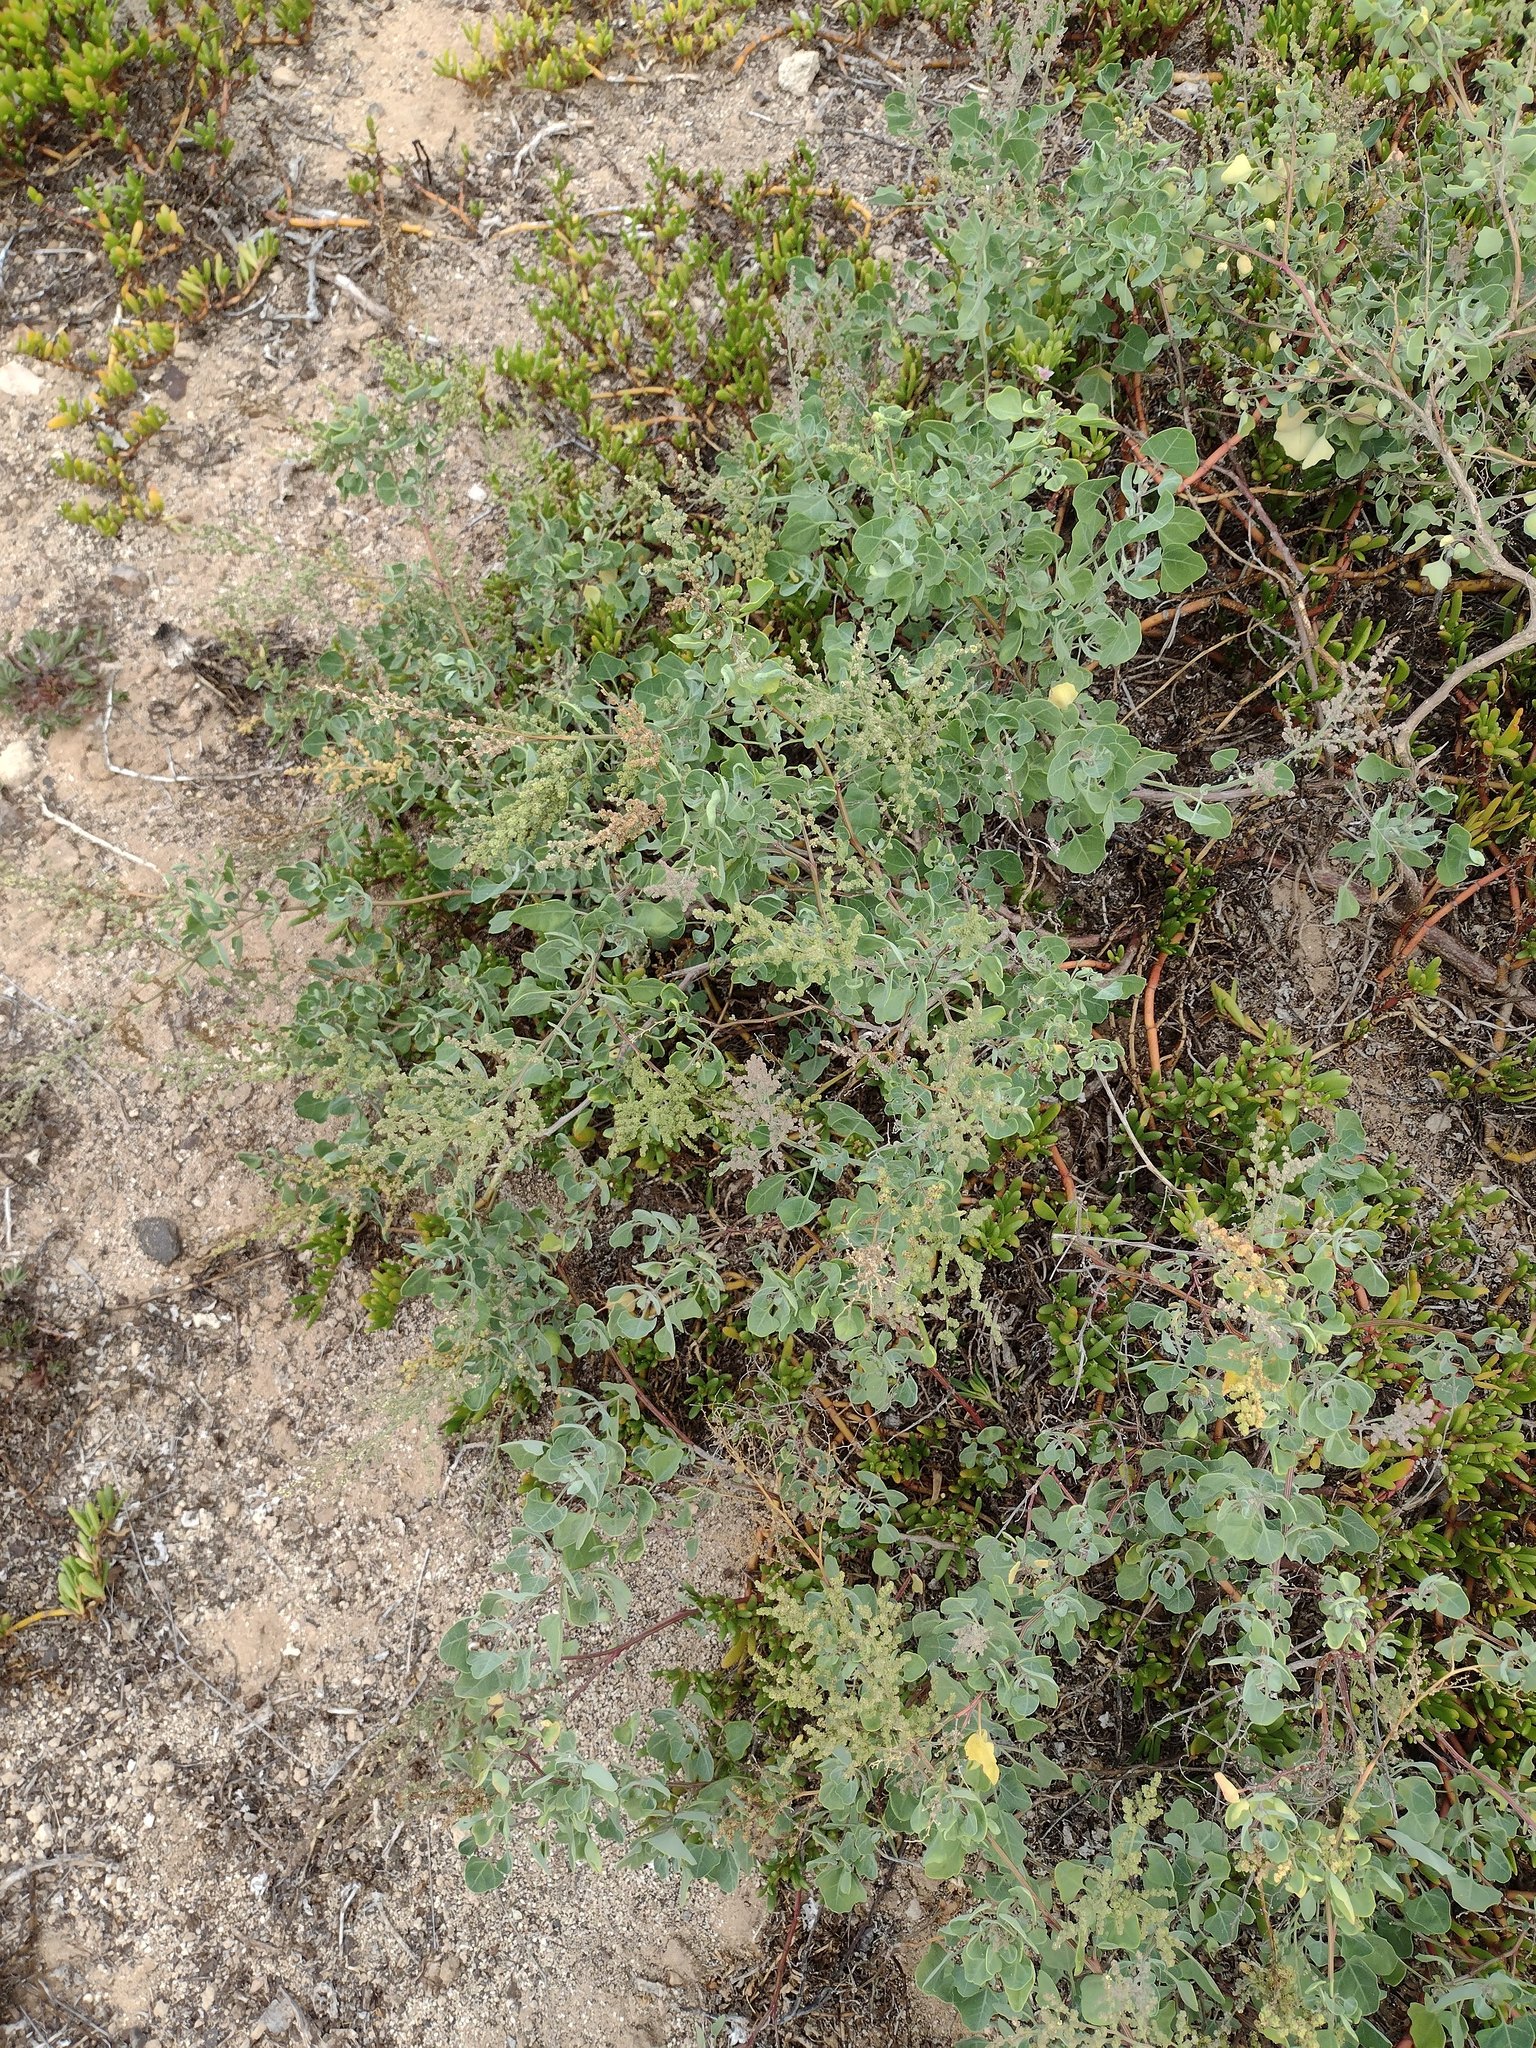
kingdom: Plantae
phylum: Tracheophyta
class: Magnoliopsida
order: Caryophyllales
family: Amaranthaceae
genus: Chenopodium
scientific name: Chenopodium oahuense
